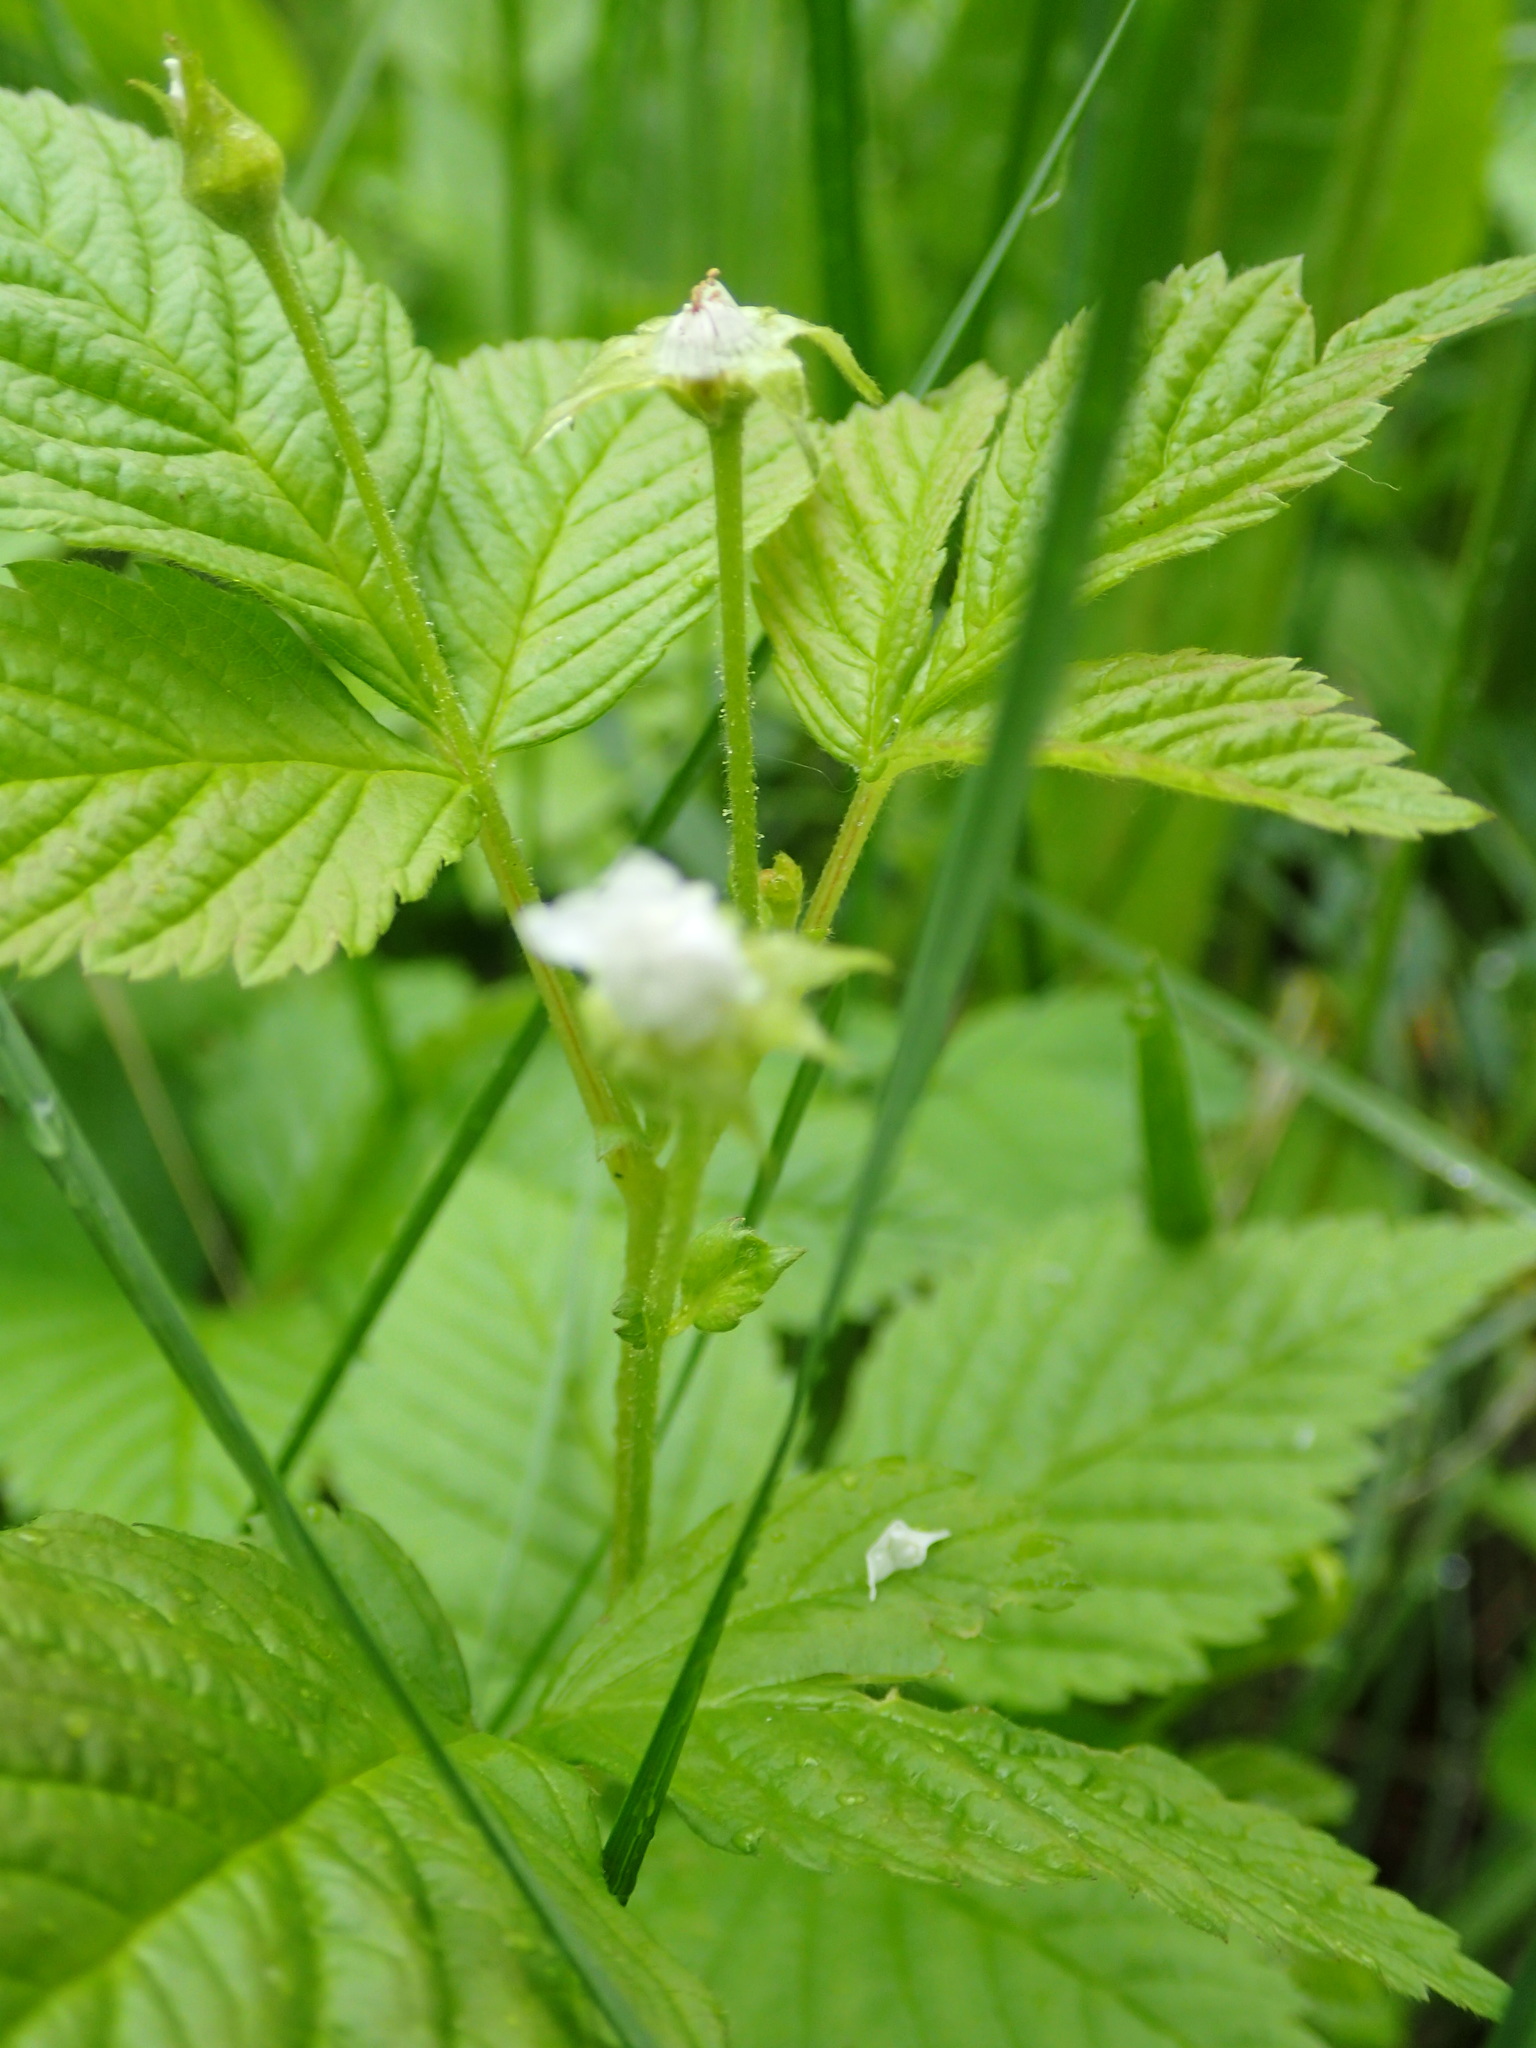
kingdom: Plantae
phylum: Tracheophyta
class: Magnoliopsida
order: Rosales
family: Rosaceae
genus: Rubus
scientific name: Rubus pubescens
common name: Dwarf raspberry
